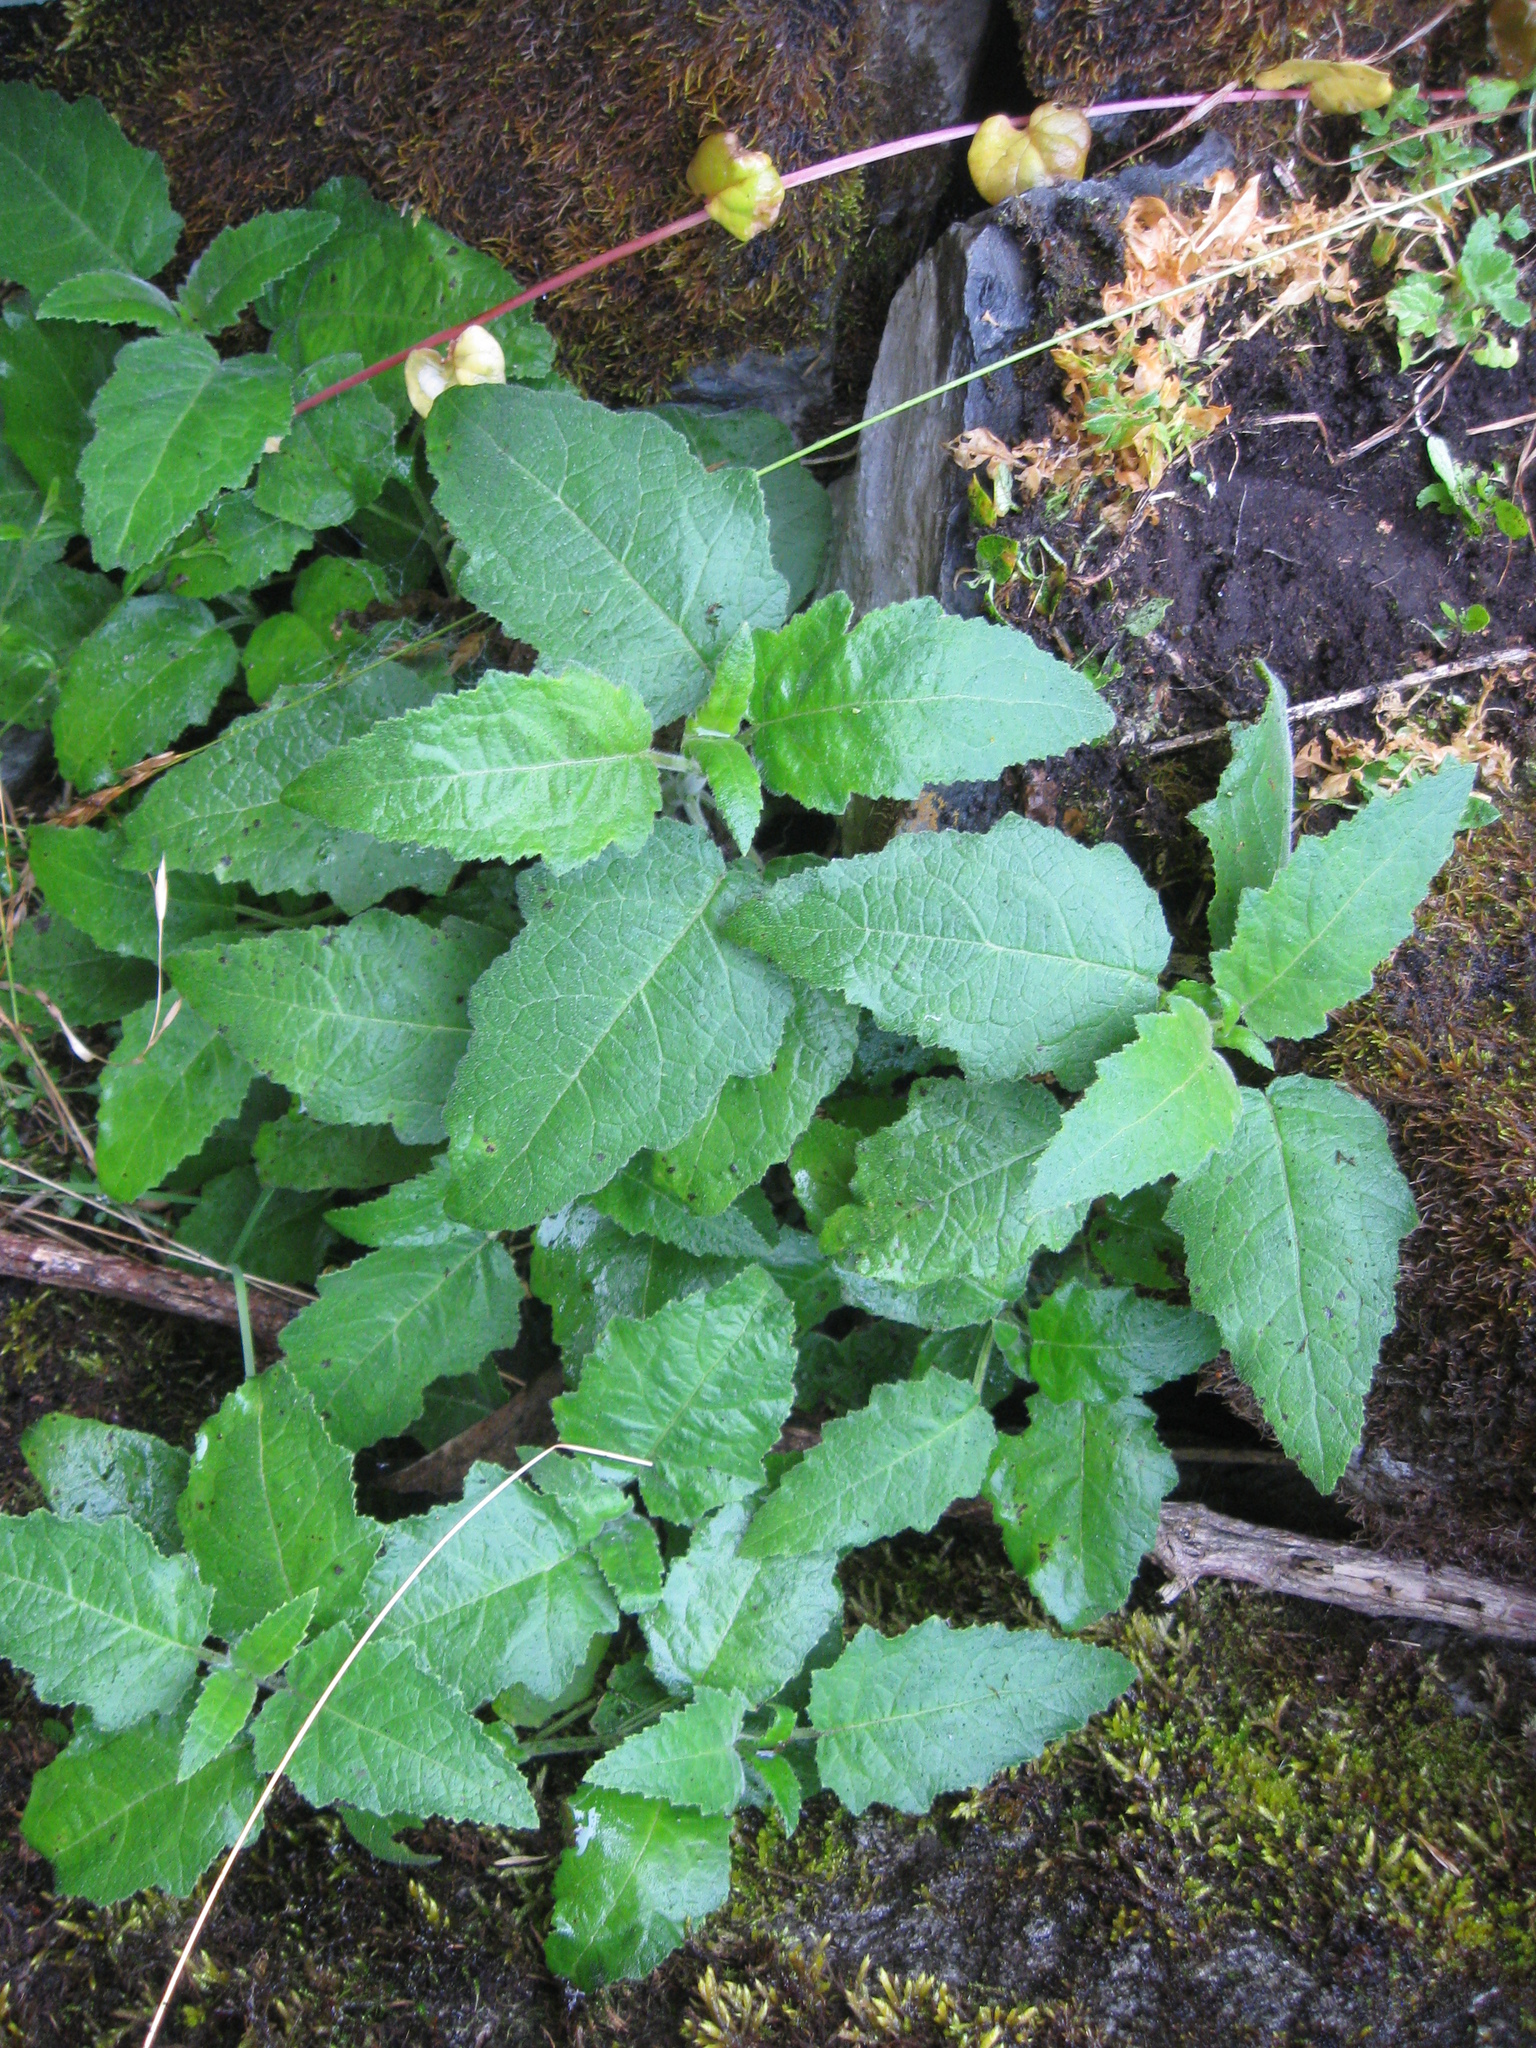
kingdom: Plantae
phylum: Tracheophyta
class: Magnoliopsida
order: Cornales
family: Loasaceae
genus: Nasa
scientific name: Nasa longivalvis
